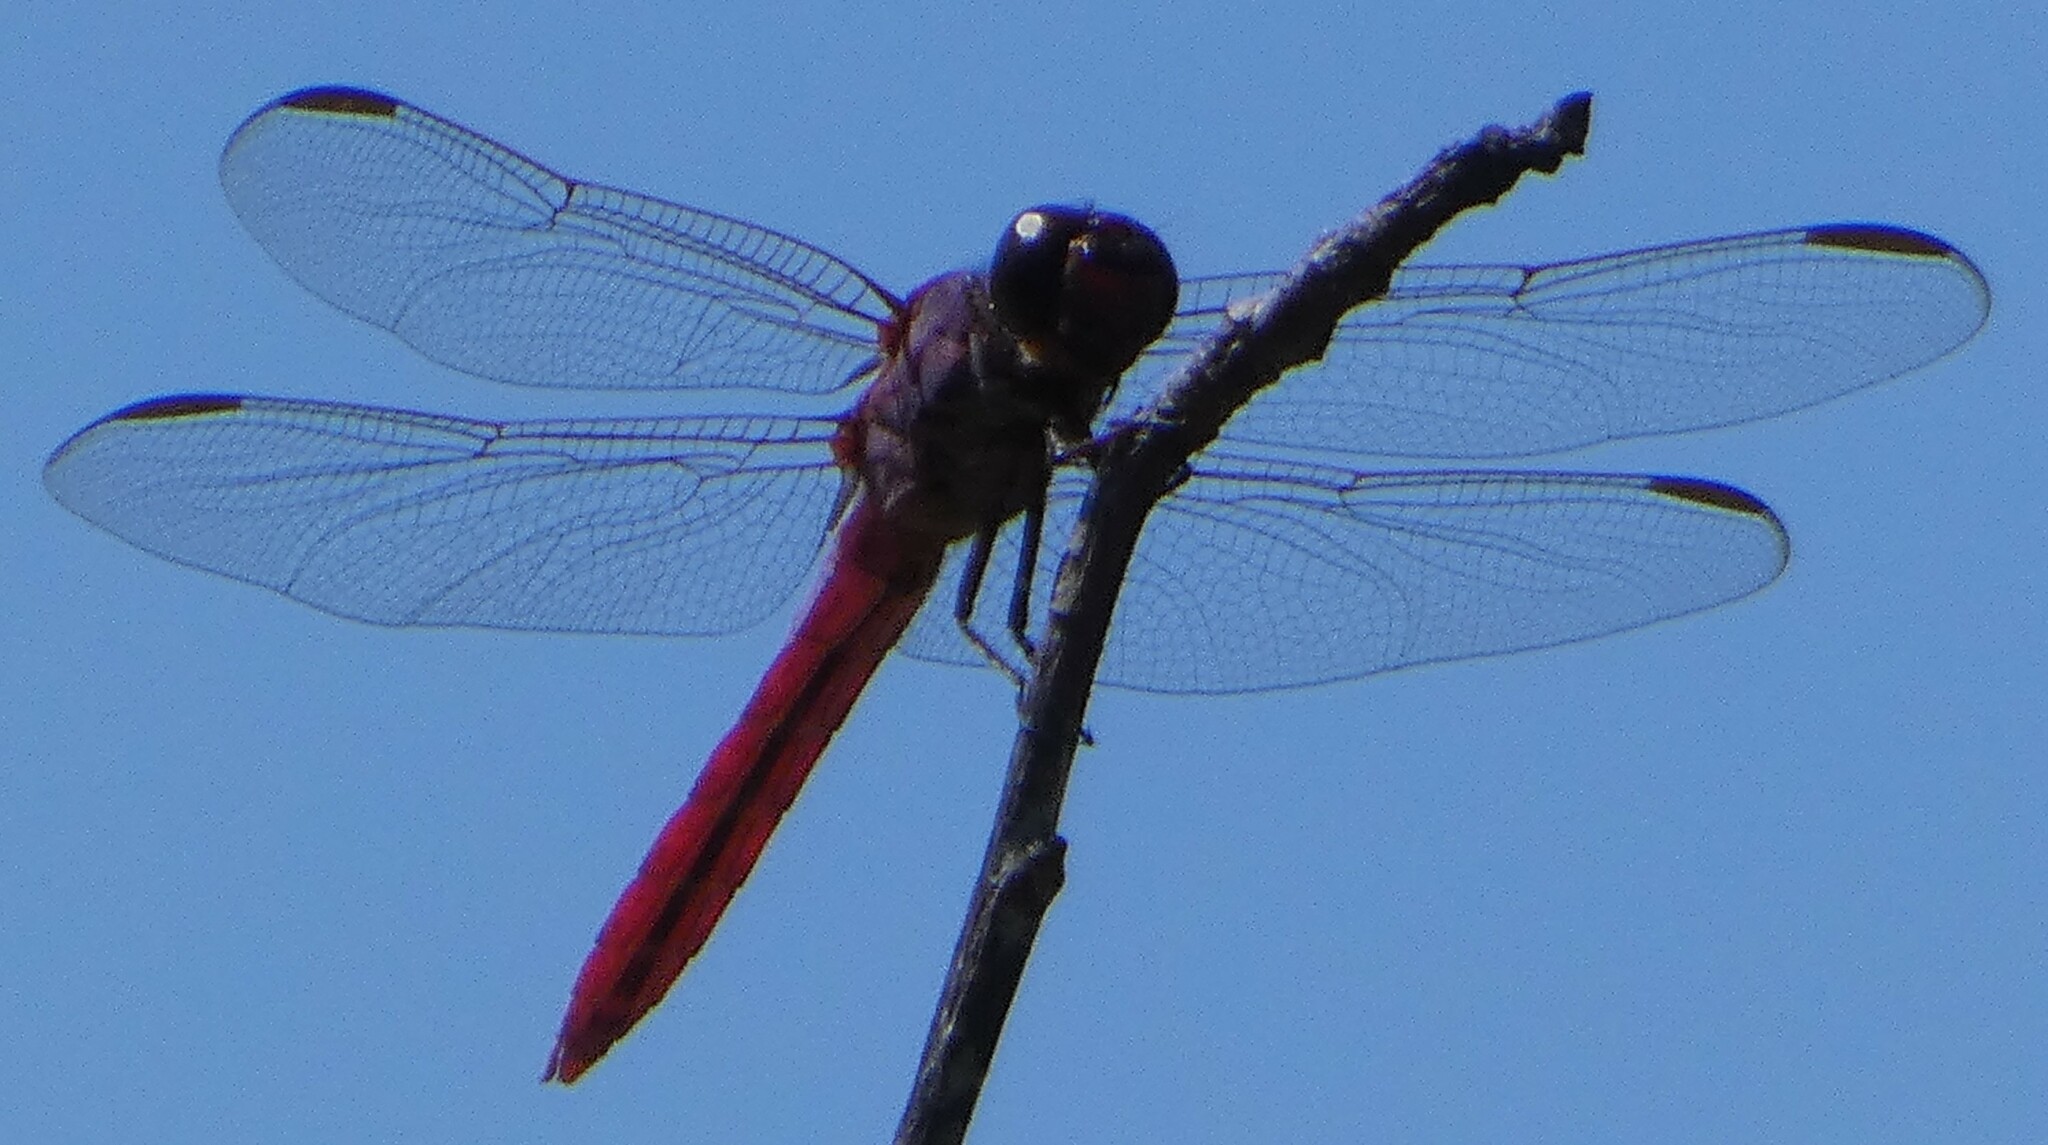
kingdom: Animalia
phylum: Arthropoda
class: Insecta
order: Odonata
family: Libellulidae
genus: Orthemis
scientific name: Orthemis ferruginea
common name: Roseate skimmer
